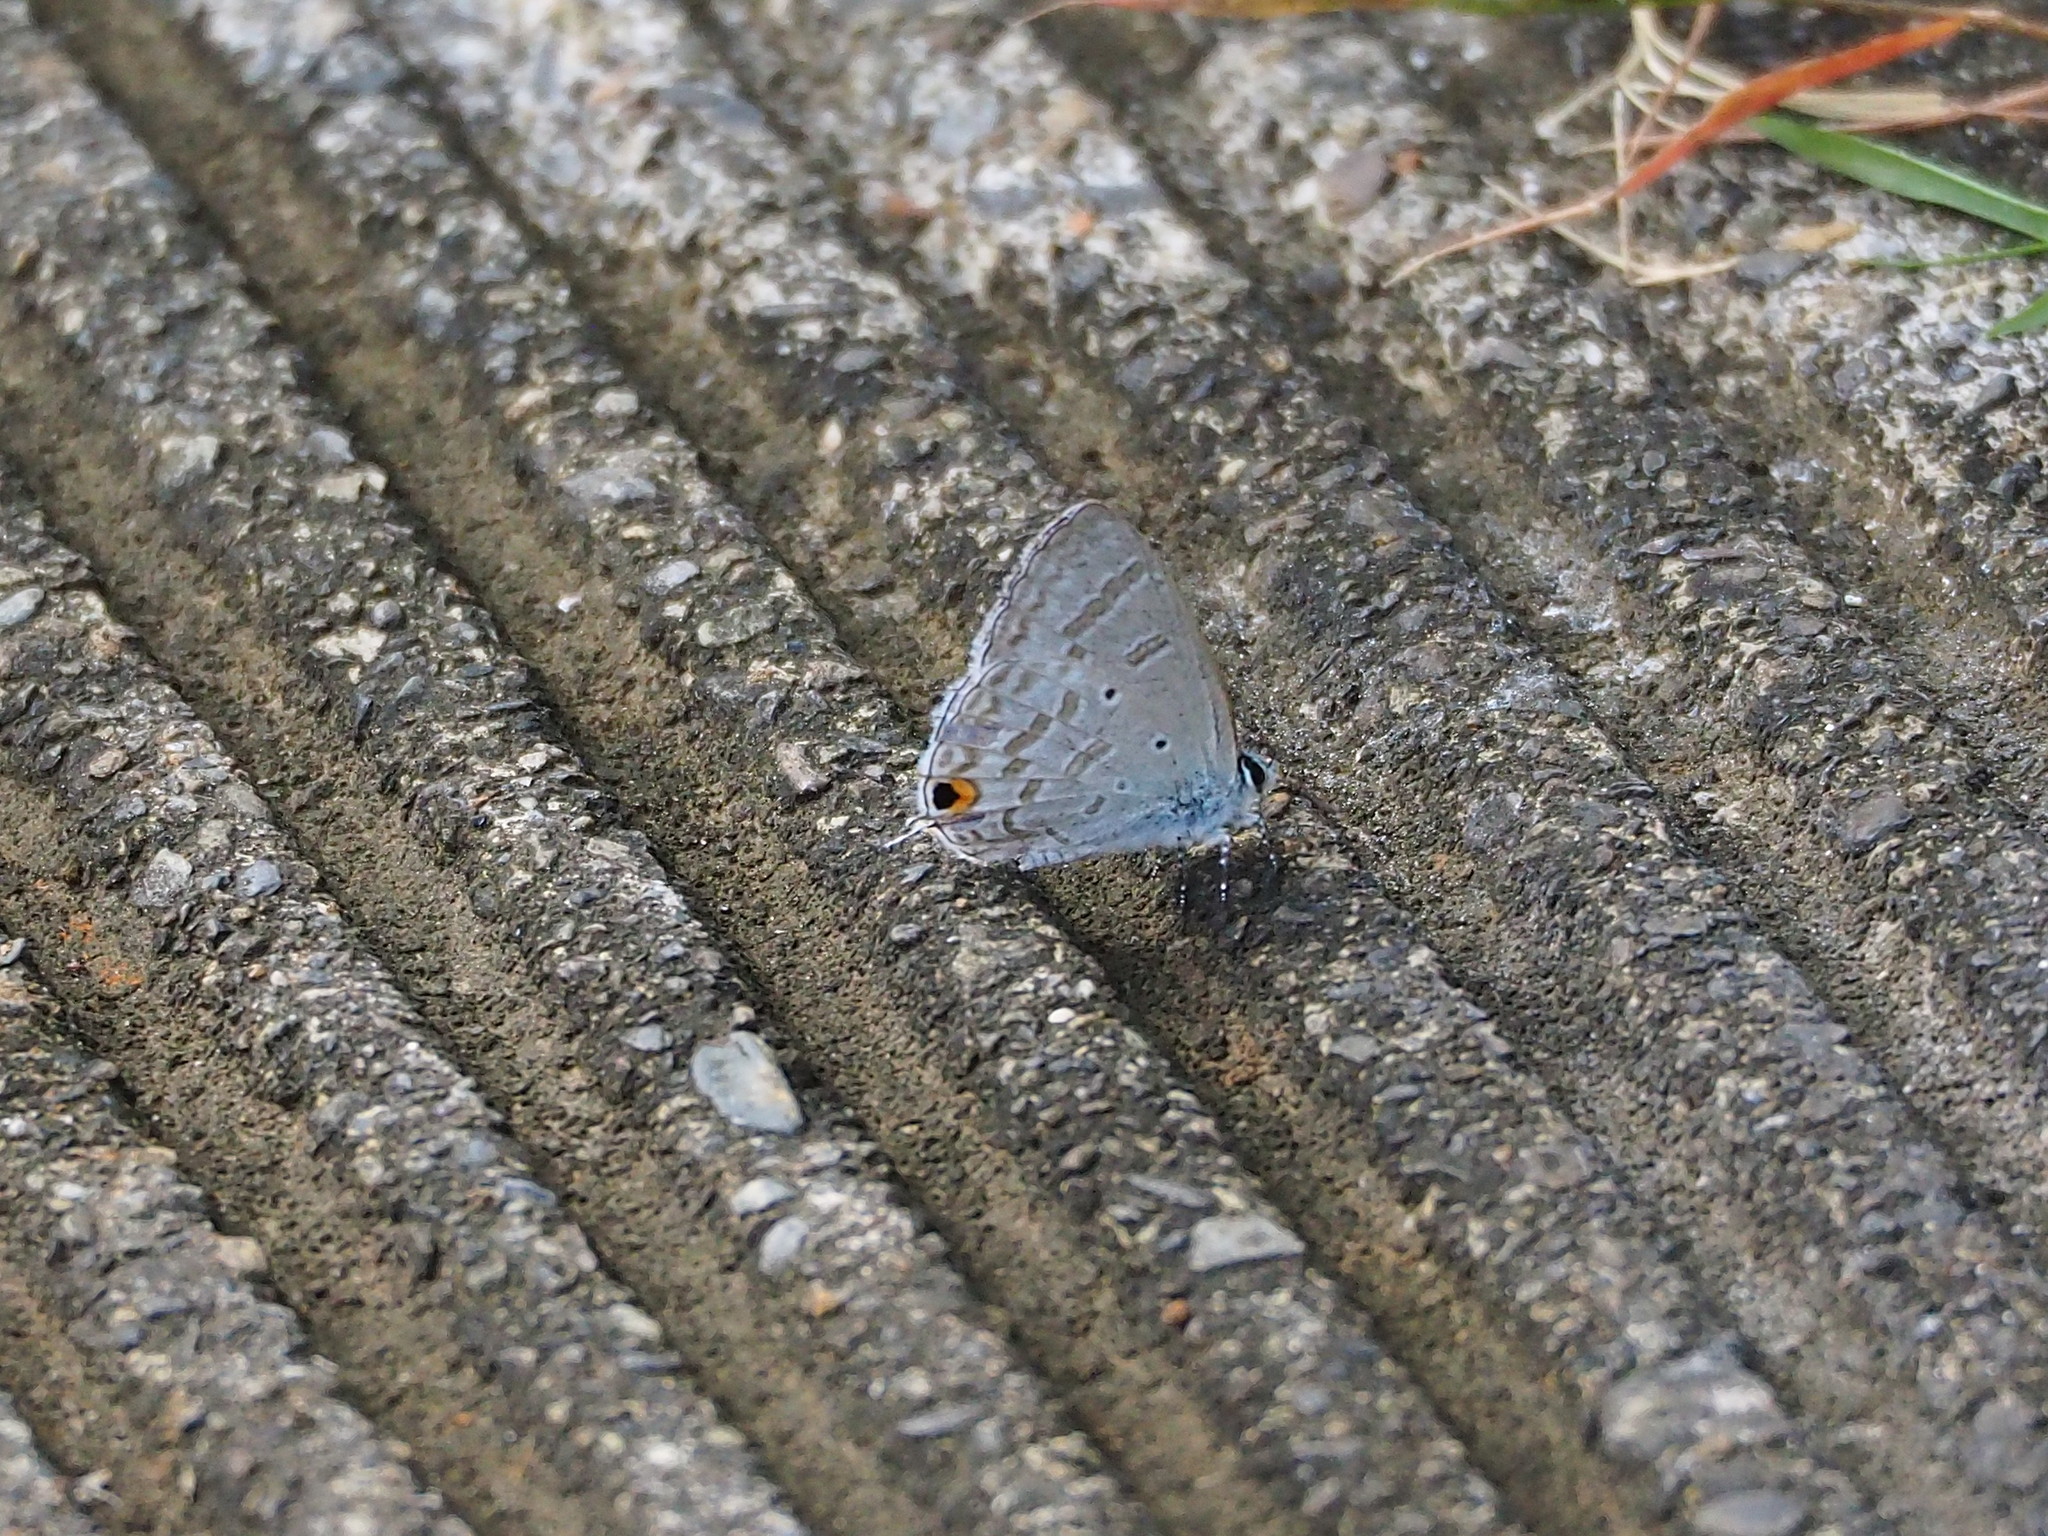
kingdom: Animalia
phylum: Arthropoda
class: Insecta
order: Lepidoptera
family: Lycaenidae
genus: Catochrysops
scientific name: Catochrysops panormus
